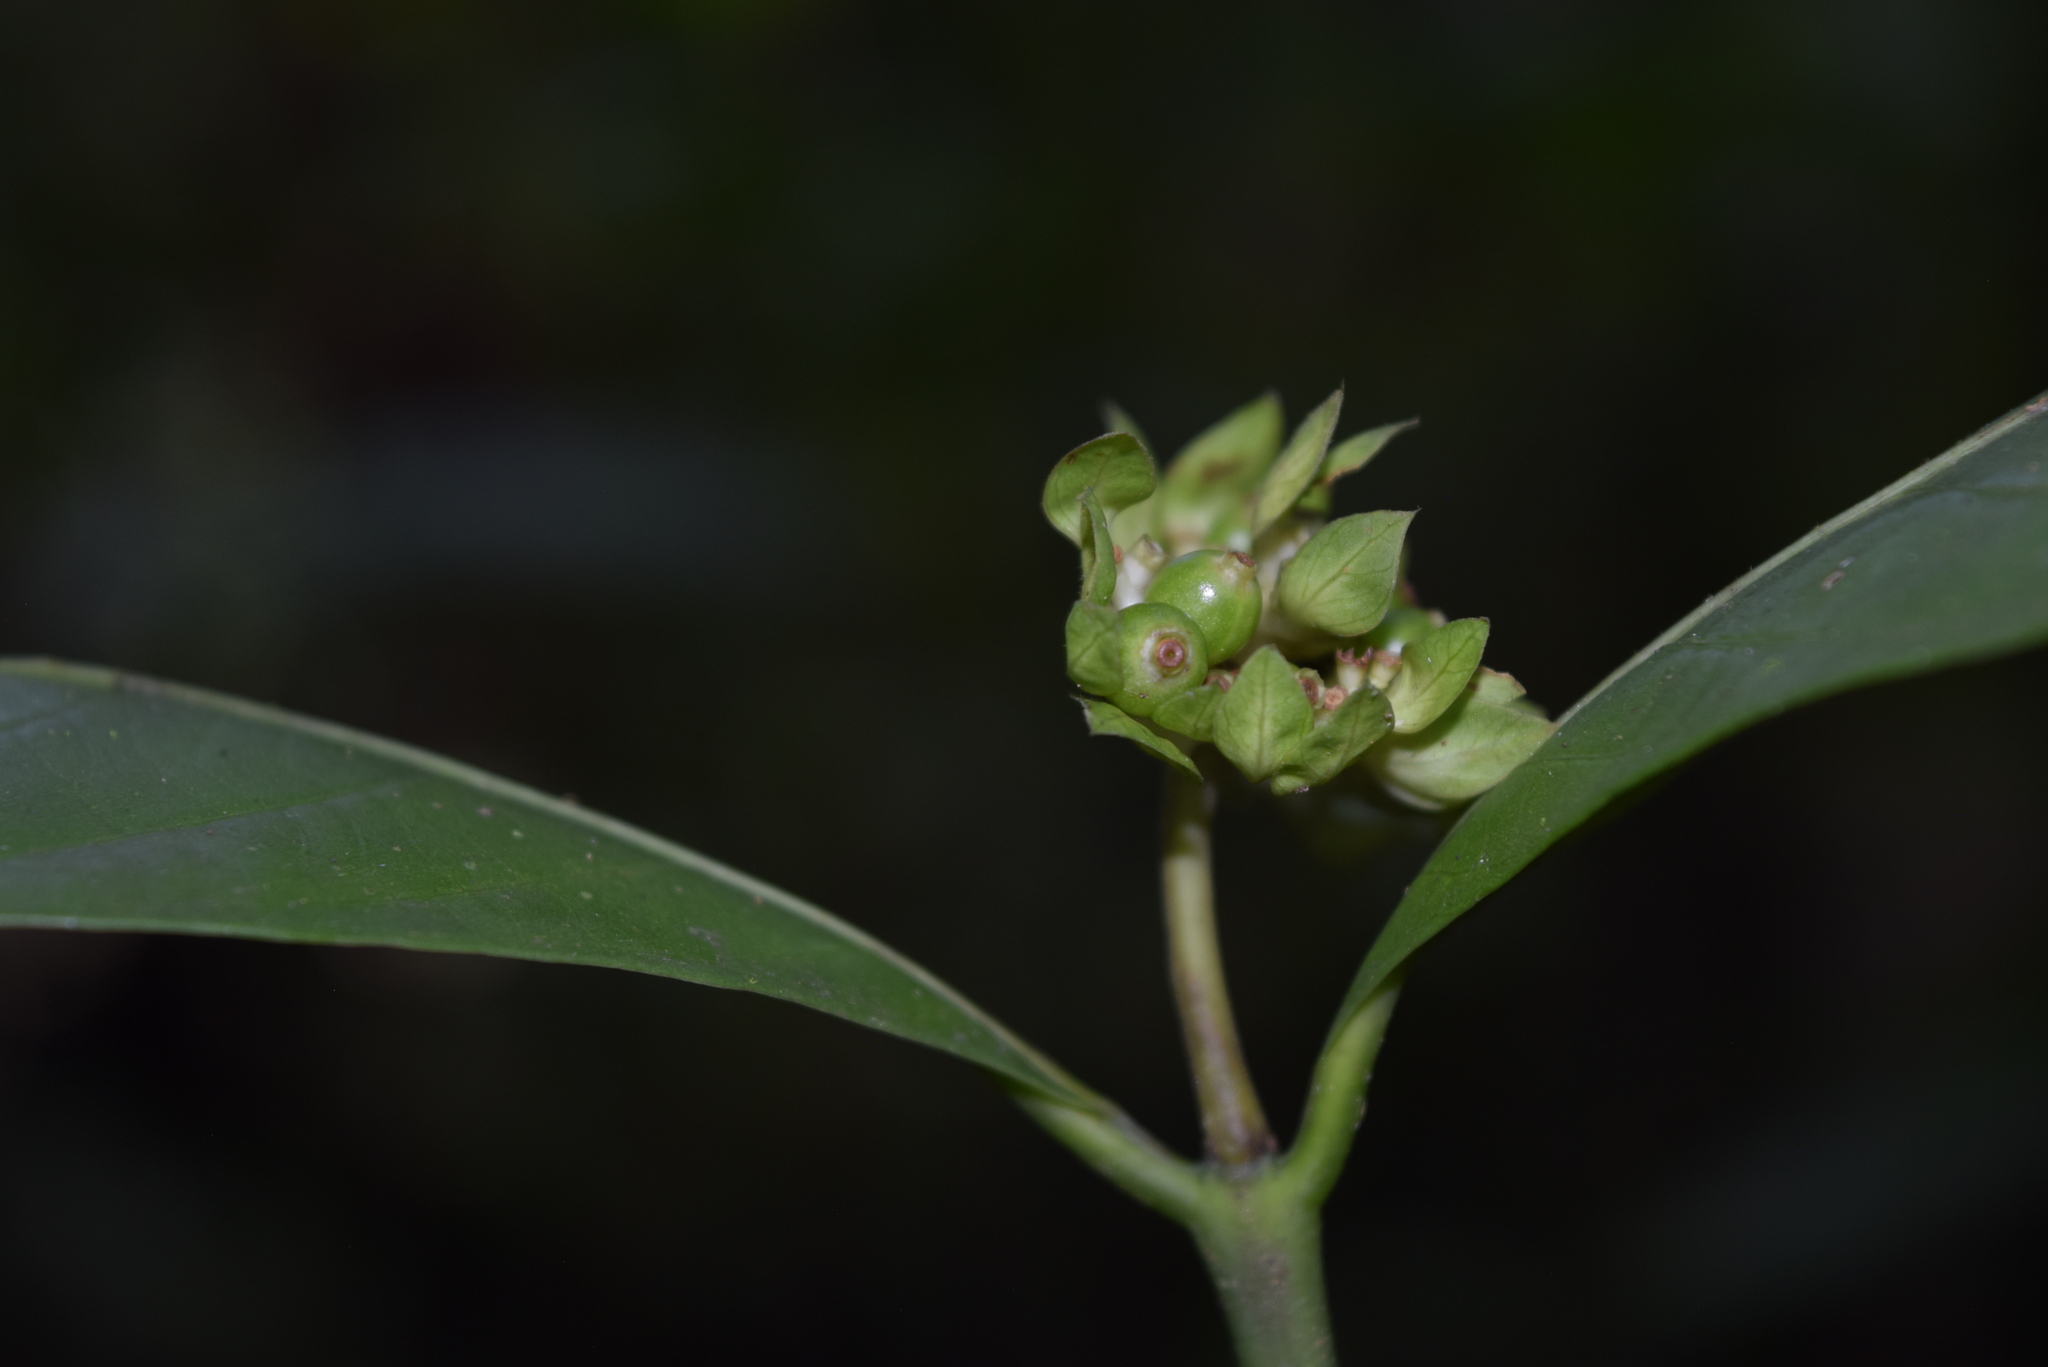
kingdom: Plantae
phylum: Tracheophyta
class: Magnoliopsida
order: Gentianales
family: Rubiaceae
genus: Palicourea
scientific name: Palicourea stagnicola
